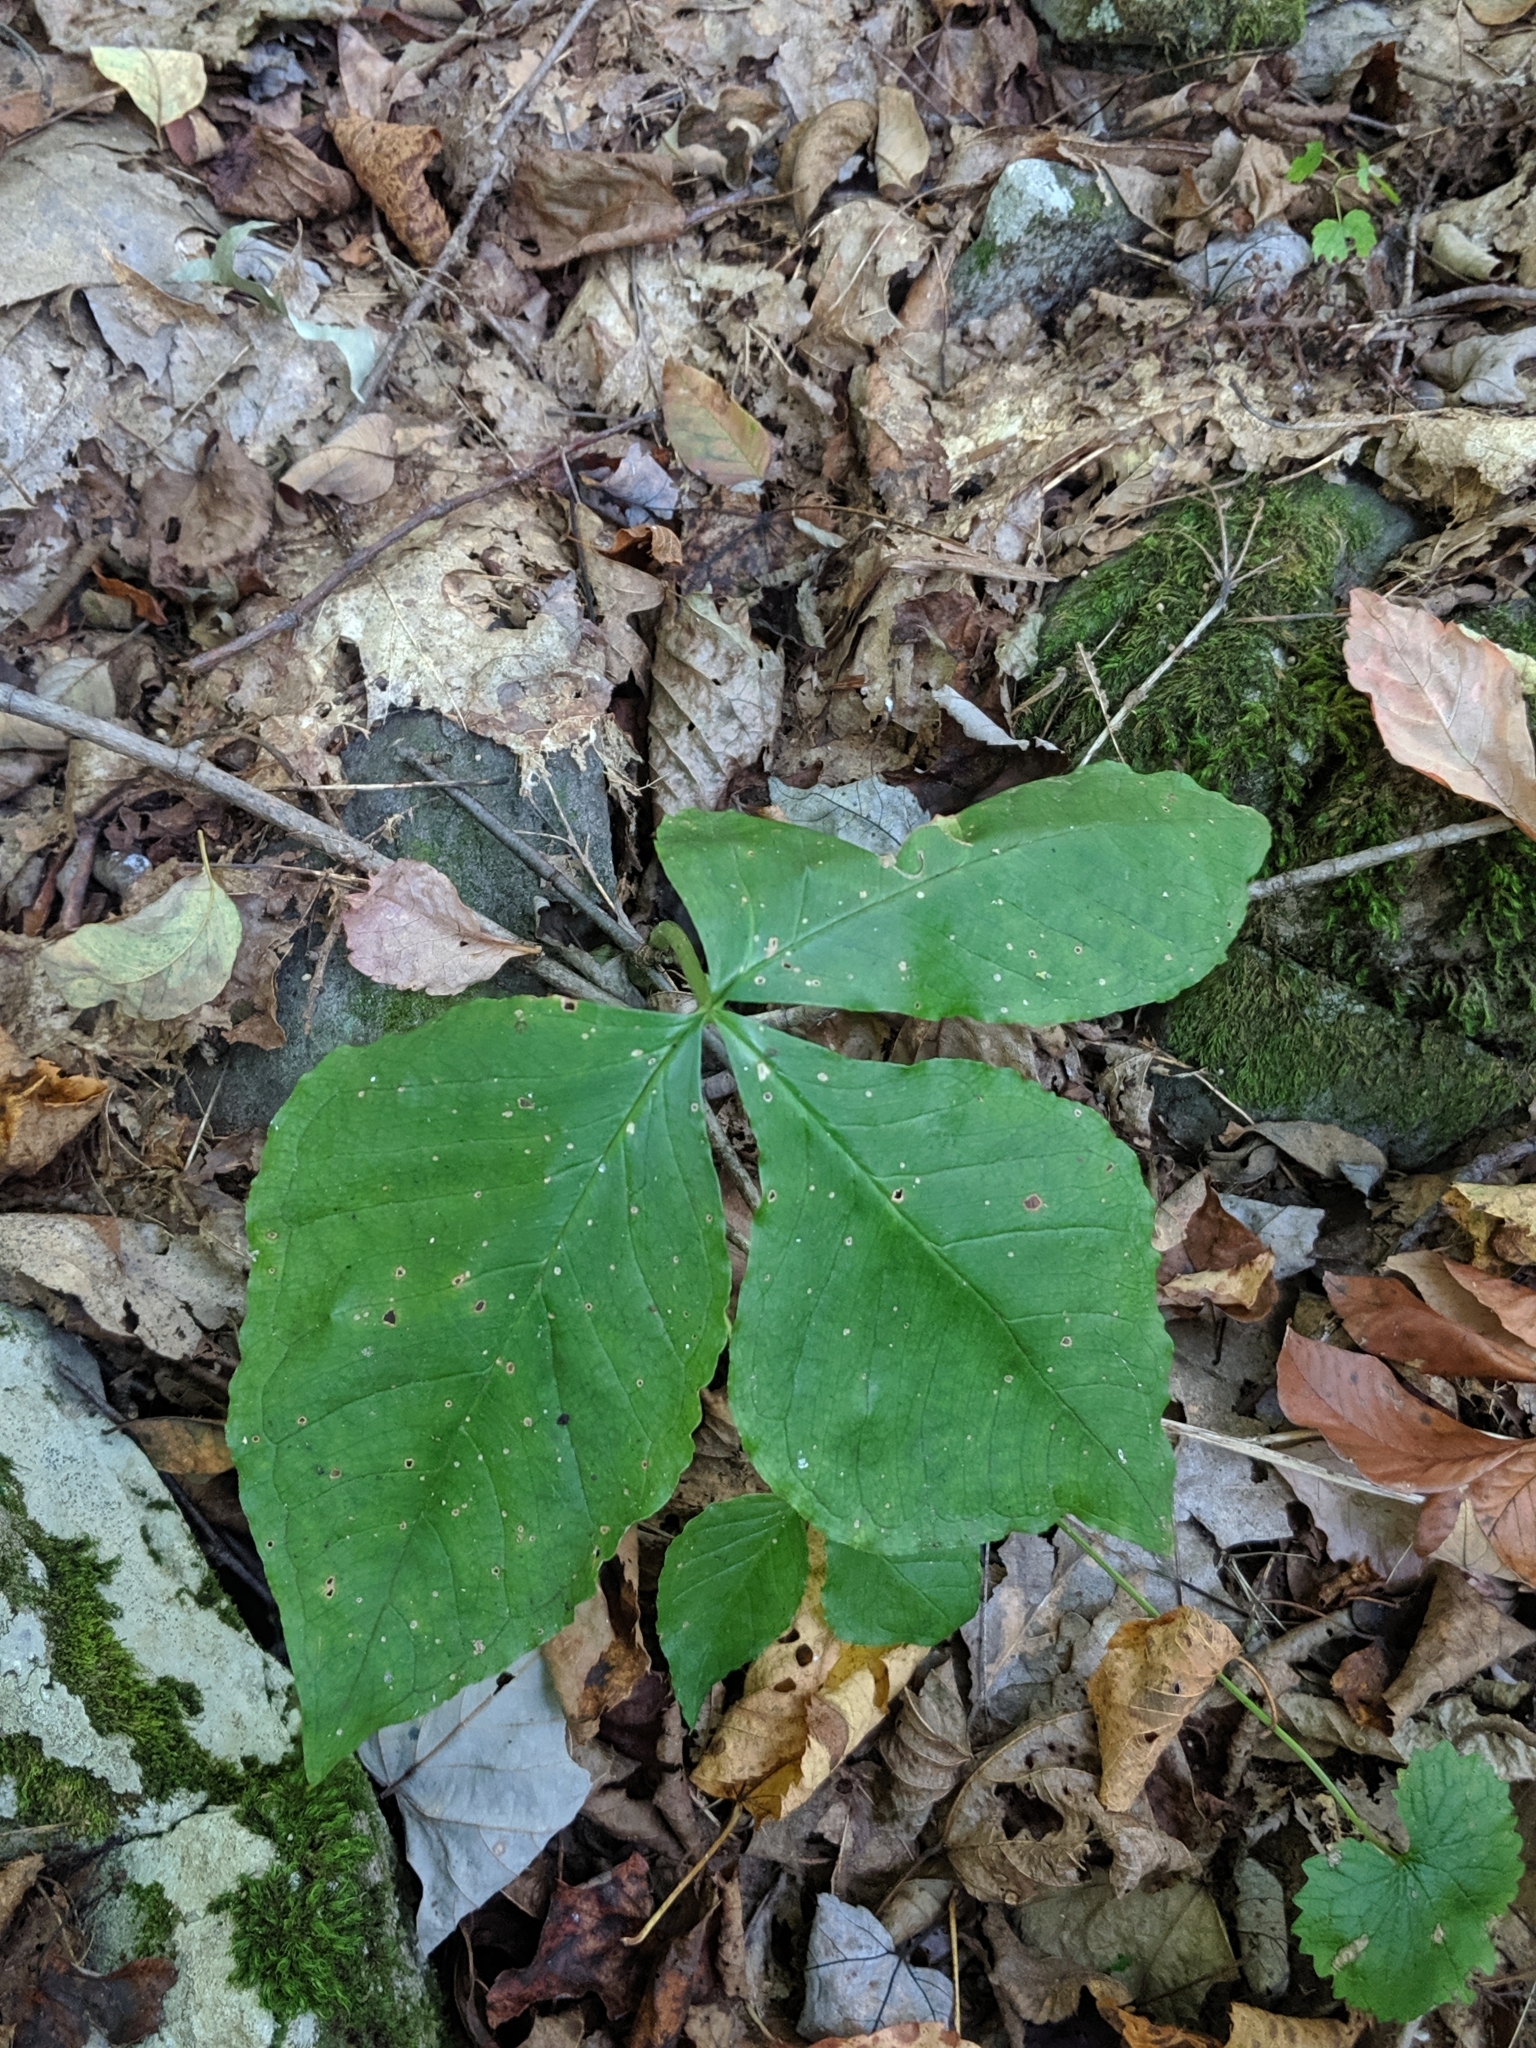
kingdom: Plantae
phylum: Tracheophyta
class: Liliopsida
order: Alismatales
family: Araceae
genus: Arisaema
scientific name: Arisaema triphyllum
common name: Jack-in-the-pulpit
